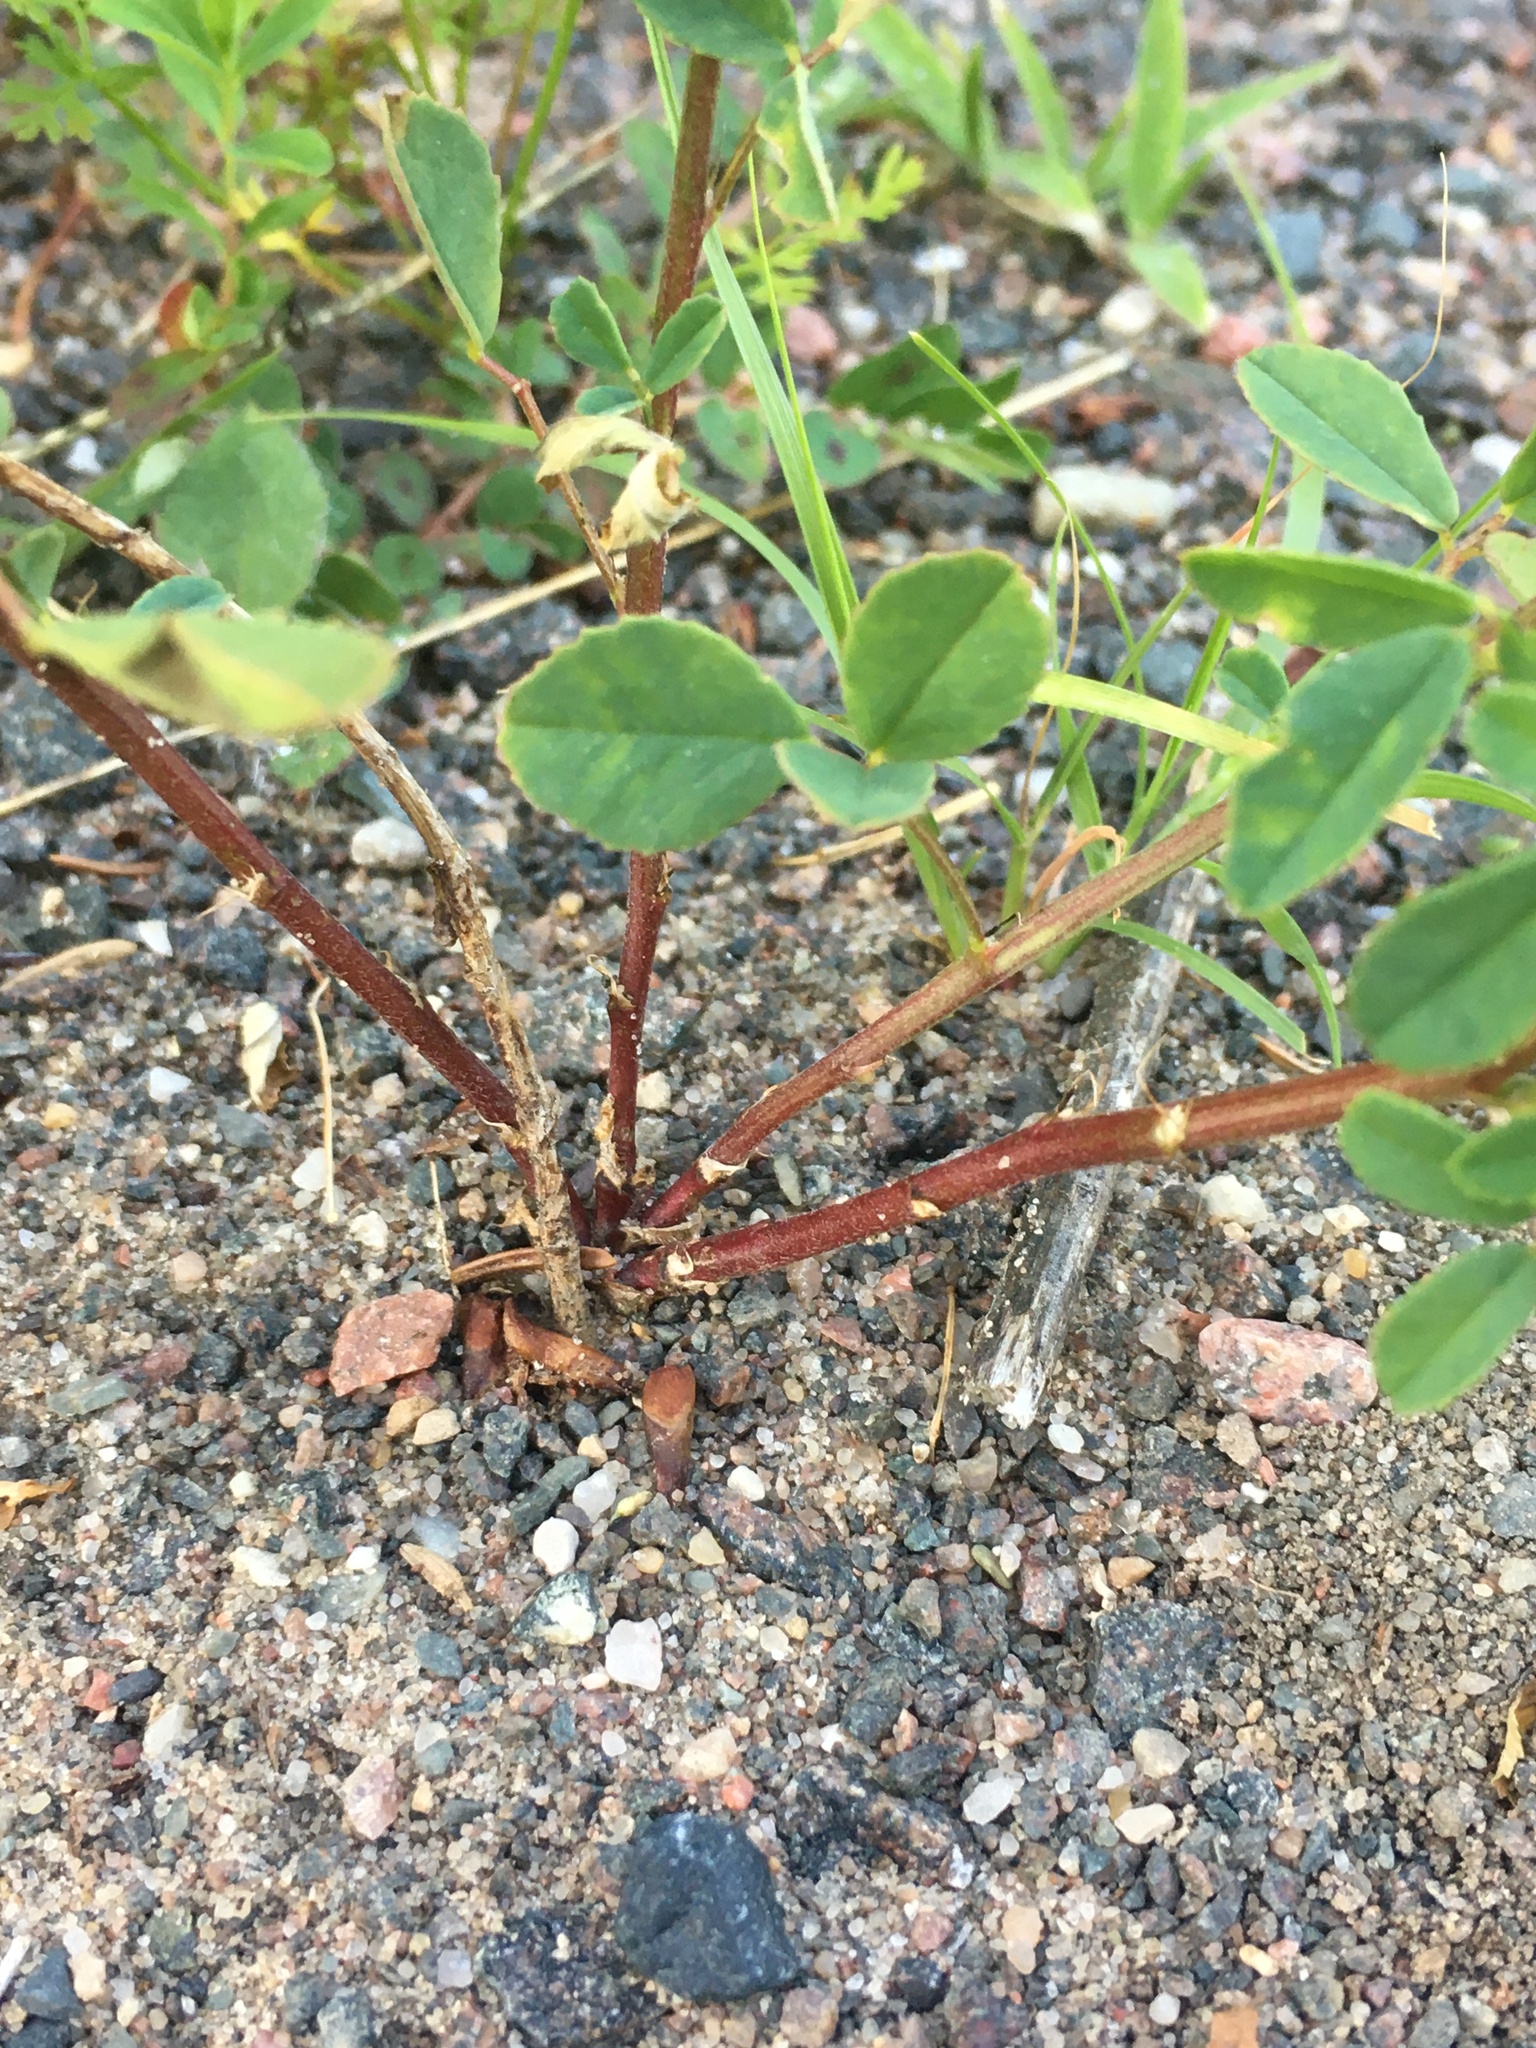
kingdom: Plantae
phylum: Tracheophyta
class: Magnoliopsida
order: Fabales
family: Fabaceae
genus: Melilotus
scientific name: Melilotus albus
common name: White melilot
